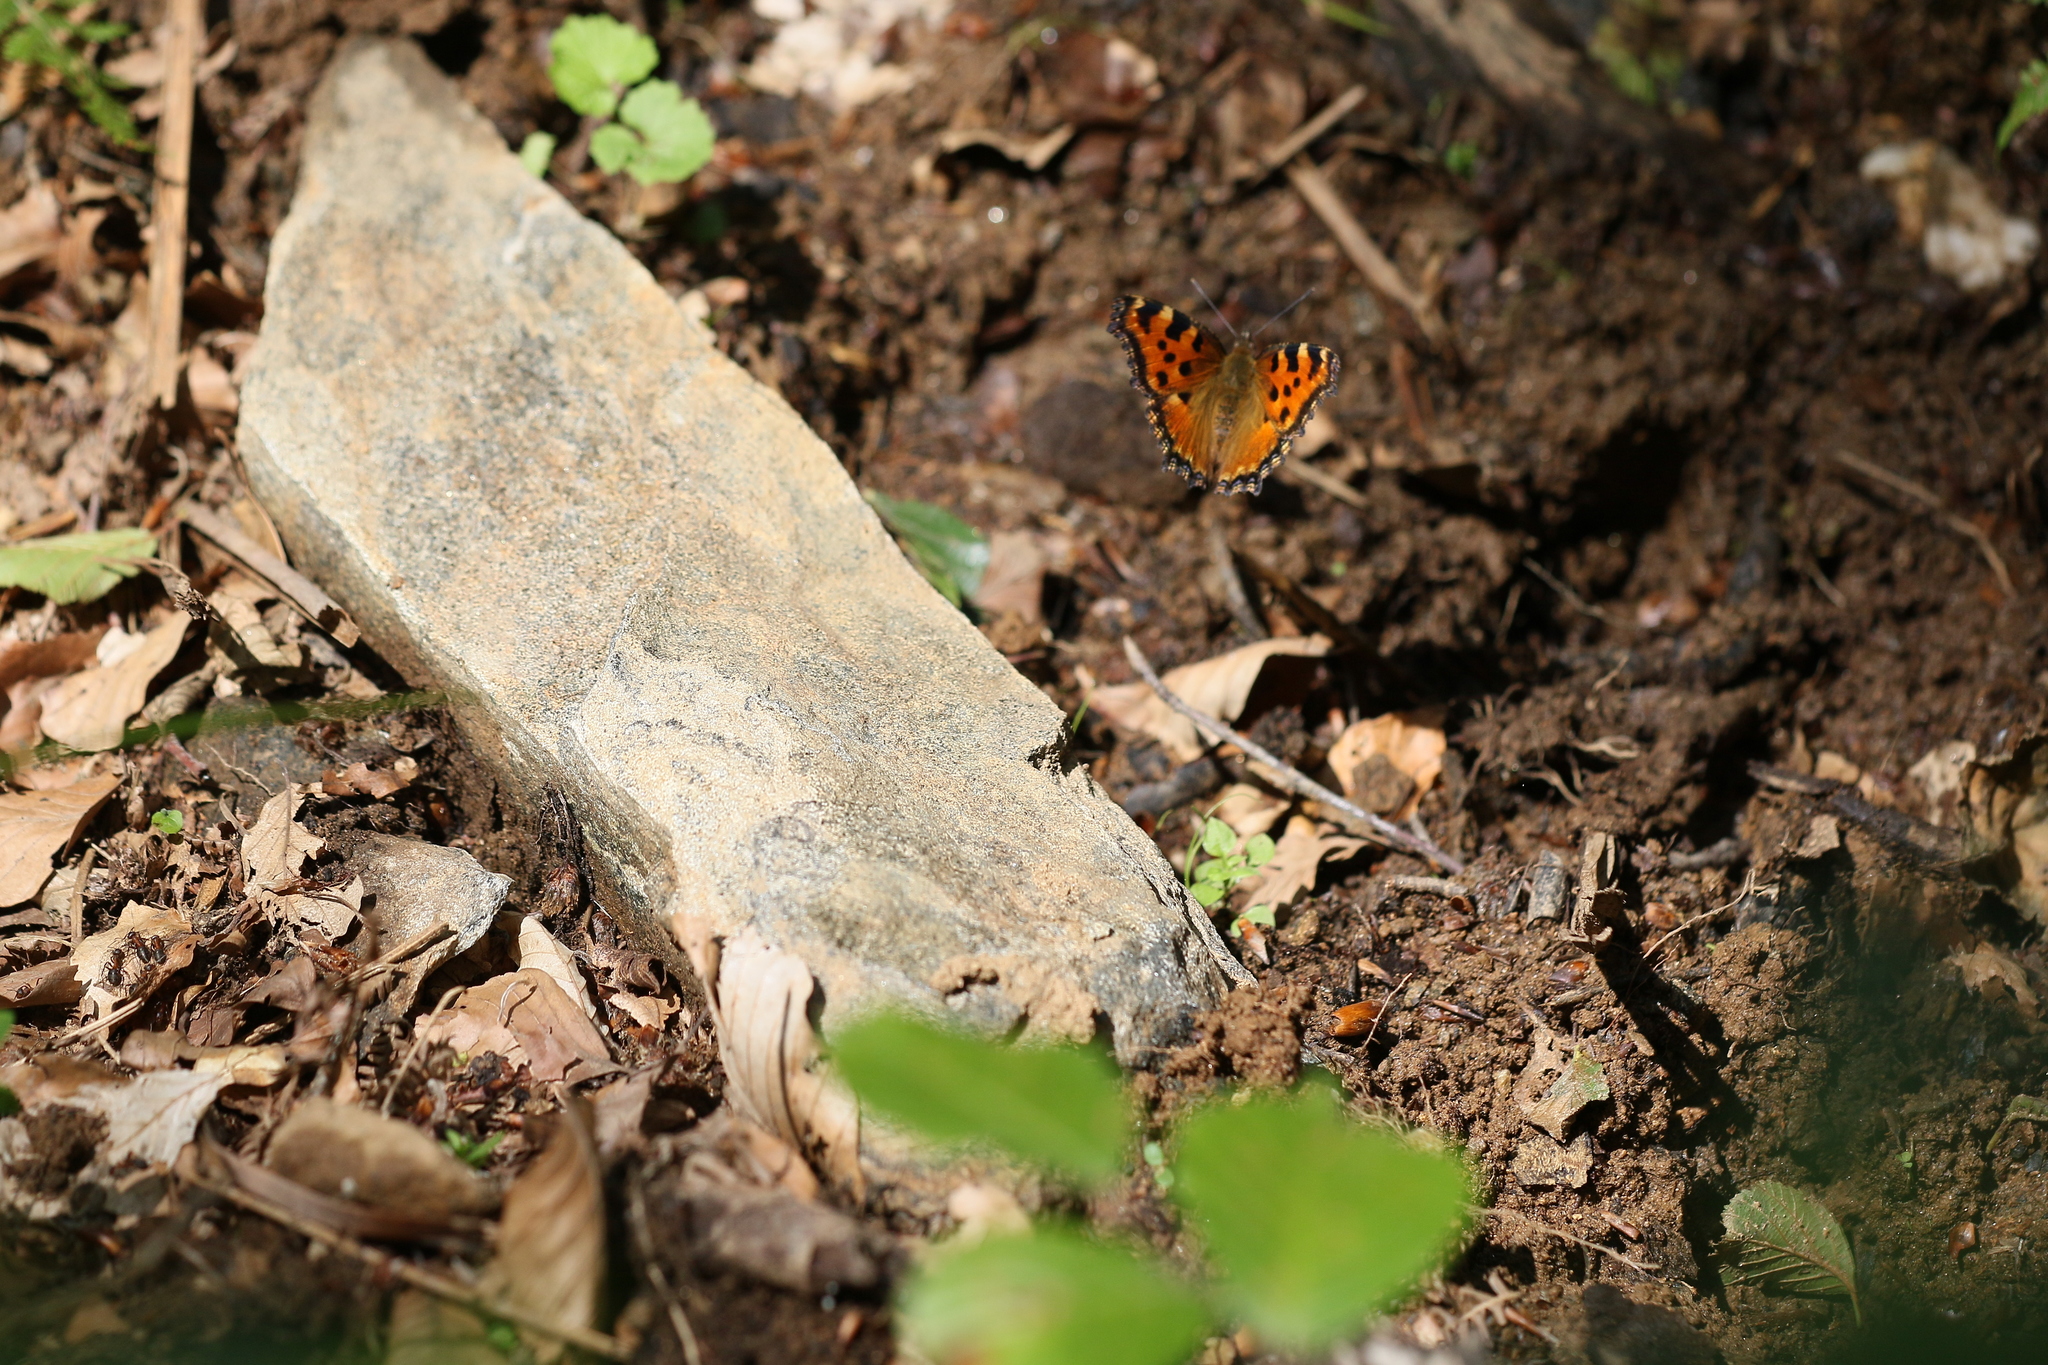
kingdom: Animalia
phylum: Arthropoda
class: Insecta
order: Lepidoptera
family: Nymphalidae
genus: Nymphalis
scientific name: Nymphalis polychloros
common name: Large tortoiseshell
